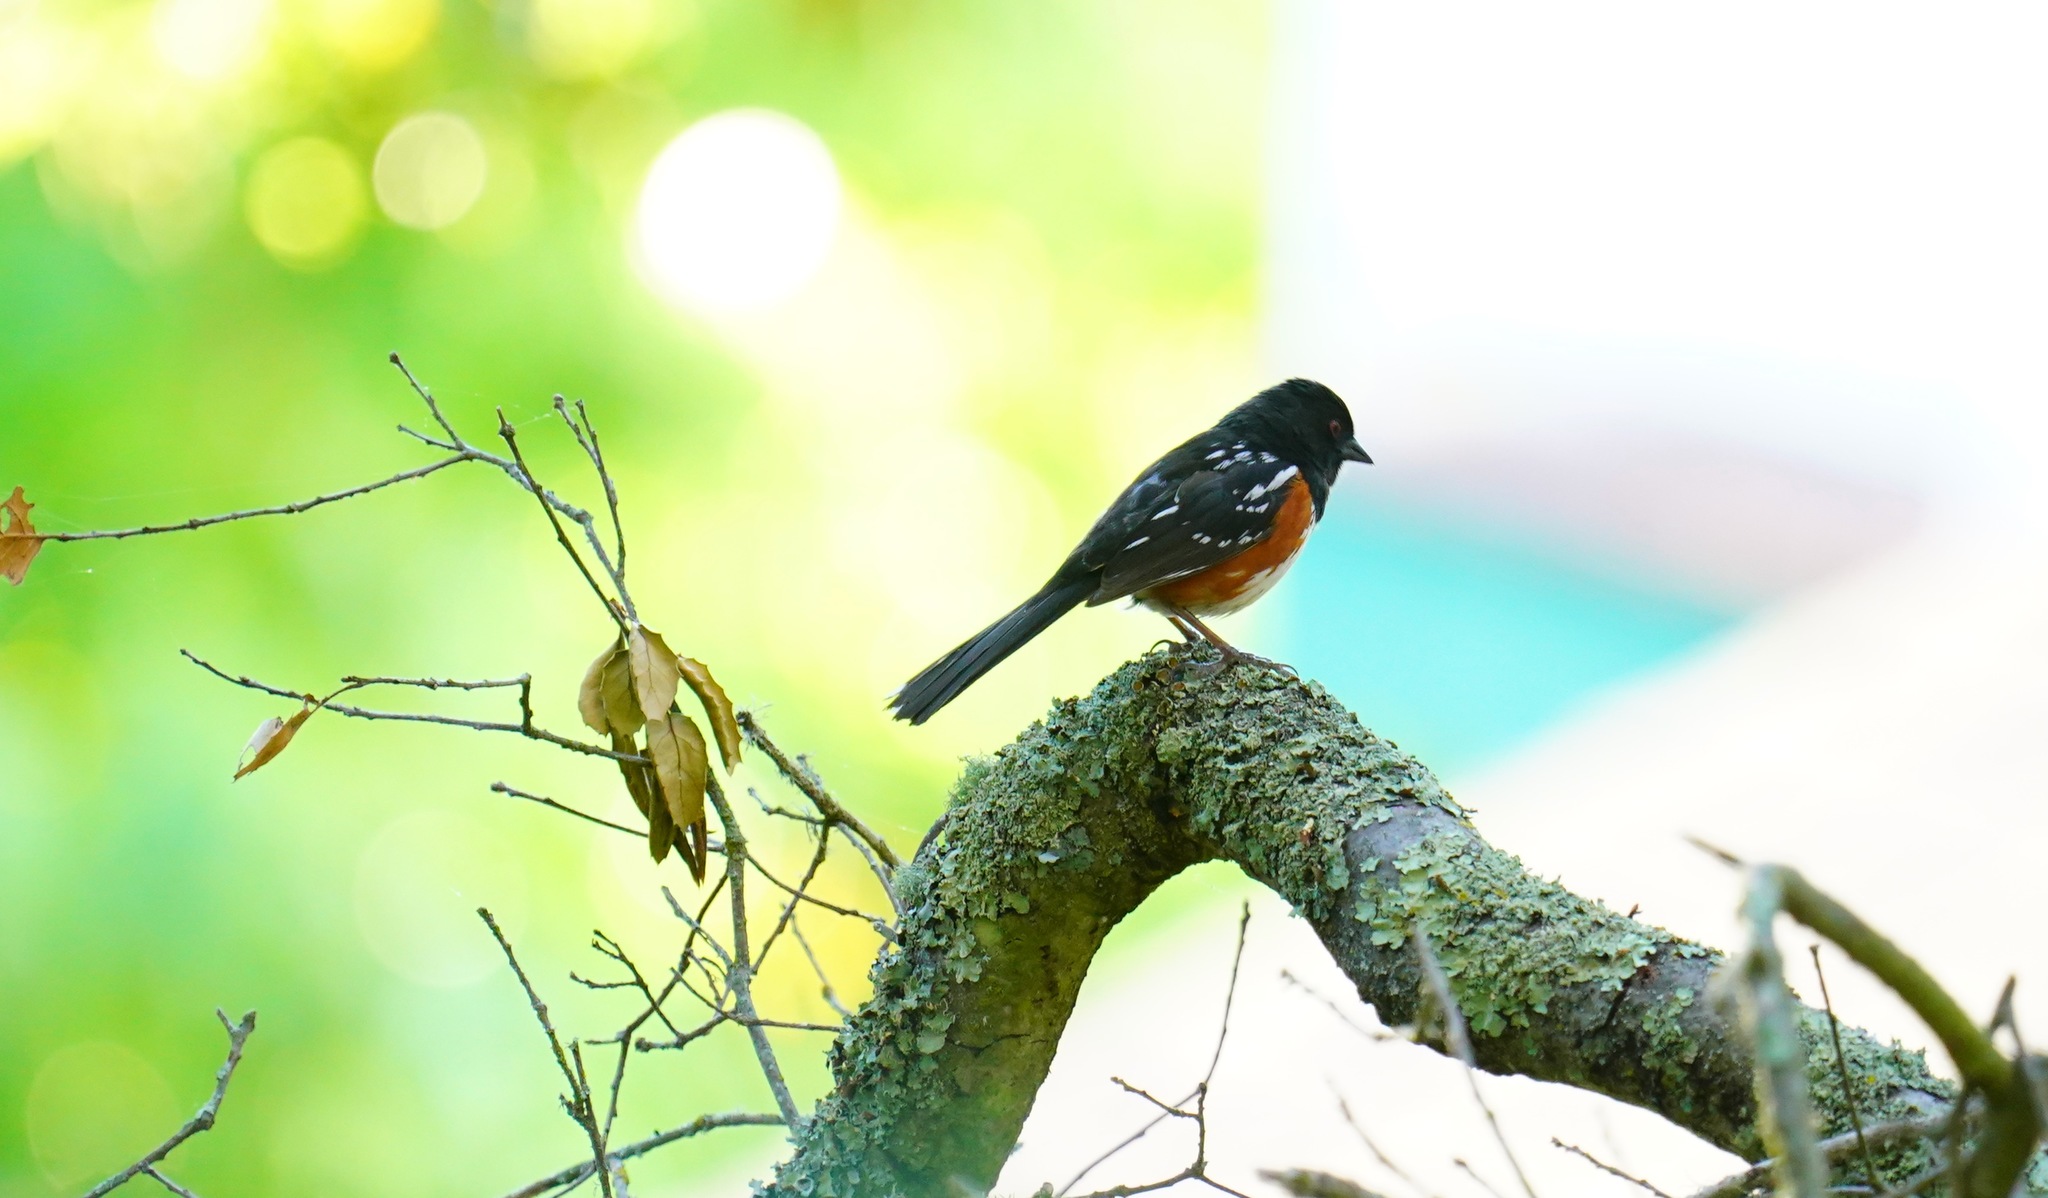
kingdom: Animalia
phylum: Chordata
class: Aves
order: Passeriformes
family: Passerellidae
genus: Pipilo
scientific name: Pipilo maculatus
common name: Spotted towhee
